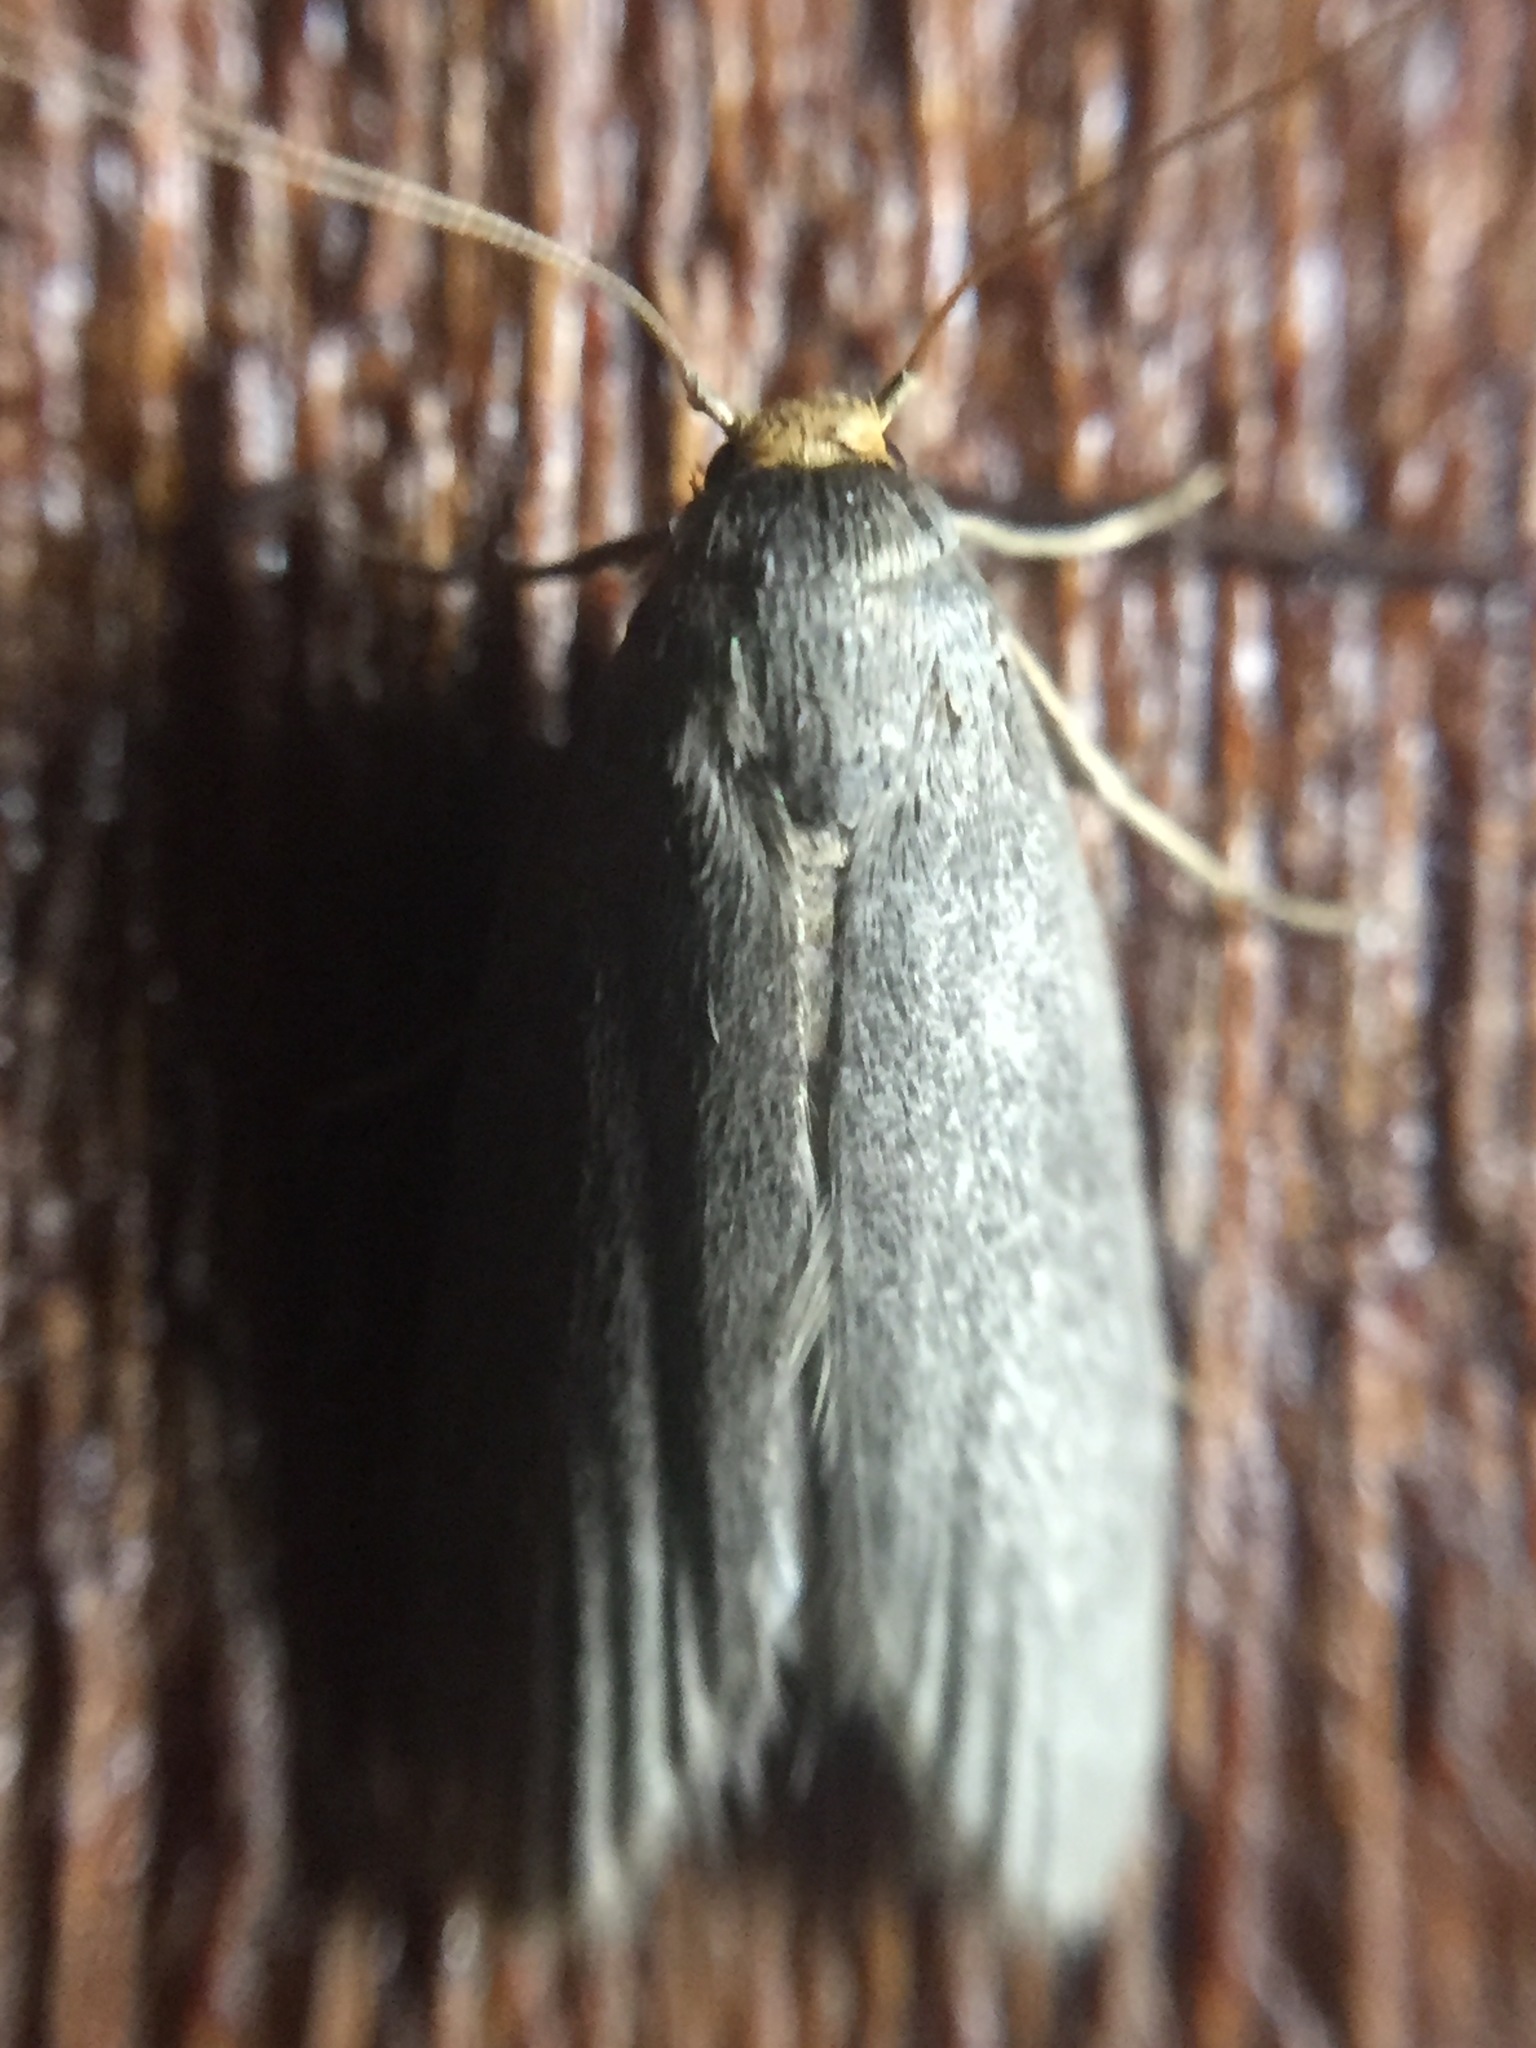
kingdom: Animalia
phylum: Arthropoda
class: Insecta
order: Lepidoptera
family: Pyralidae
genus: Achroia
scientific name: Achroia grisella
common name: Lesser wax moth
